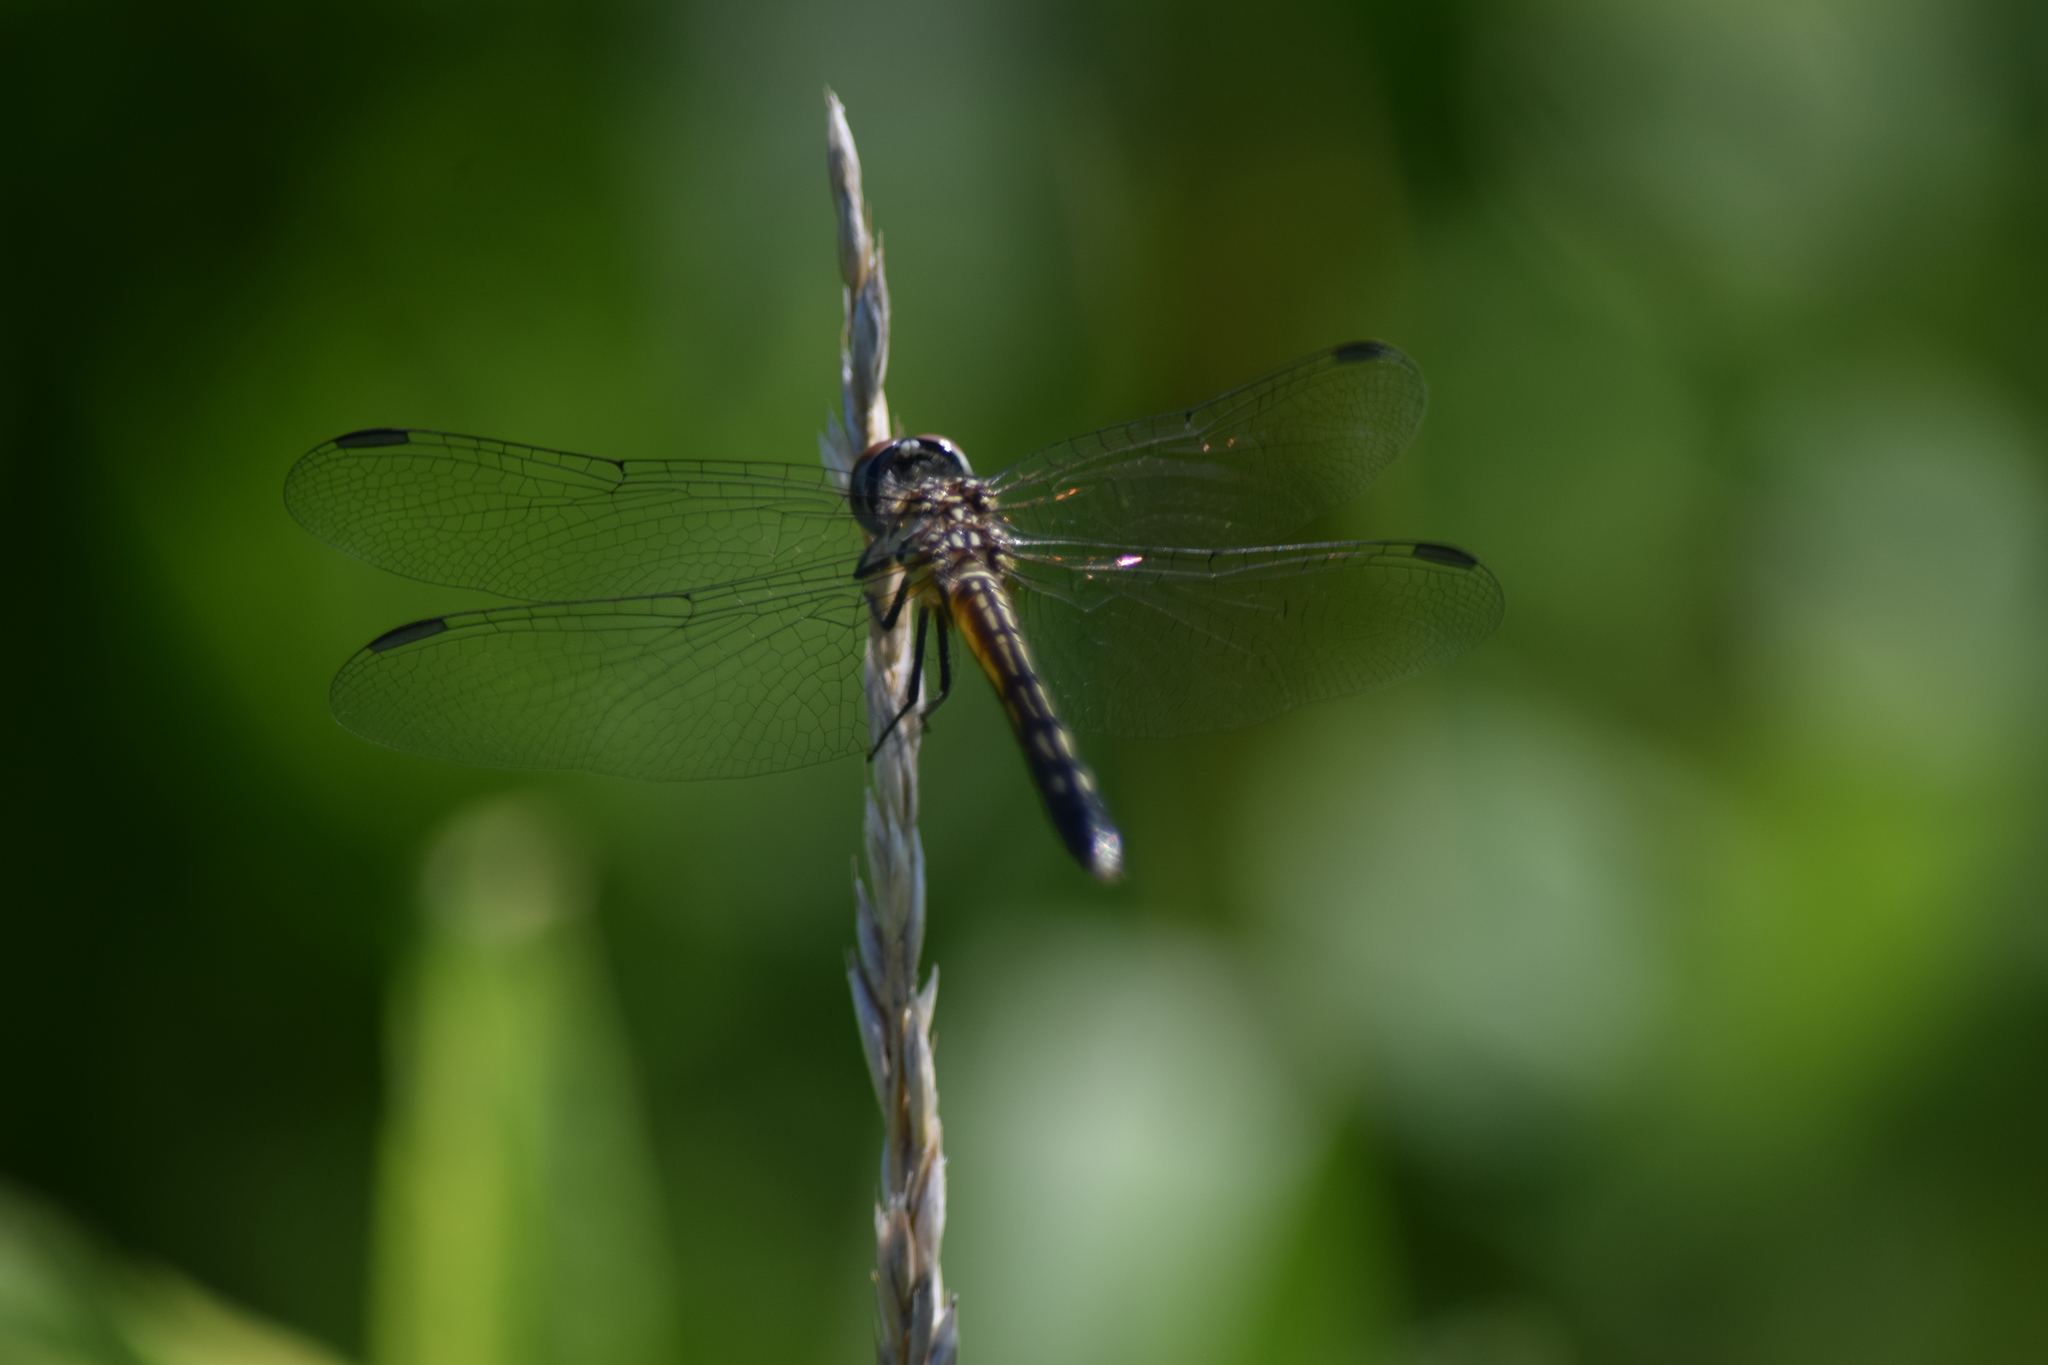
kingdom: Animalia
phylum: Arthropoda
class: Insecta
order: Odonata
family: Libellulidae
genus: Pachydiplax
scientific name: Pachydiplax longipennis
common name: Blue dasher
